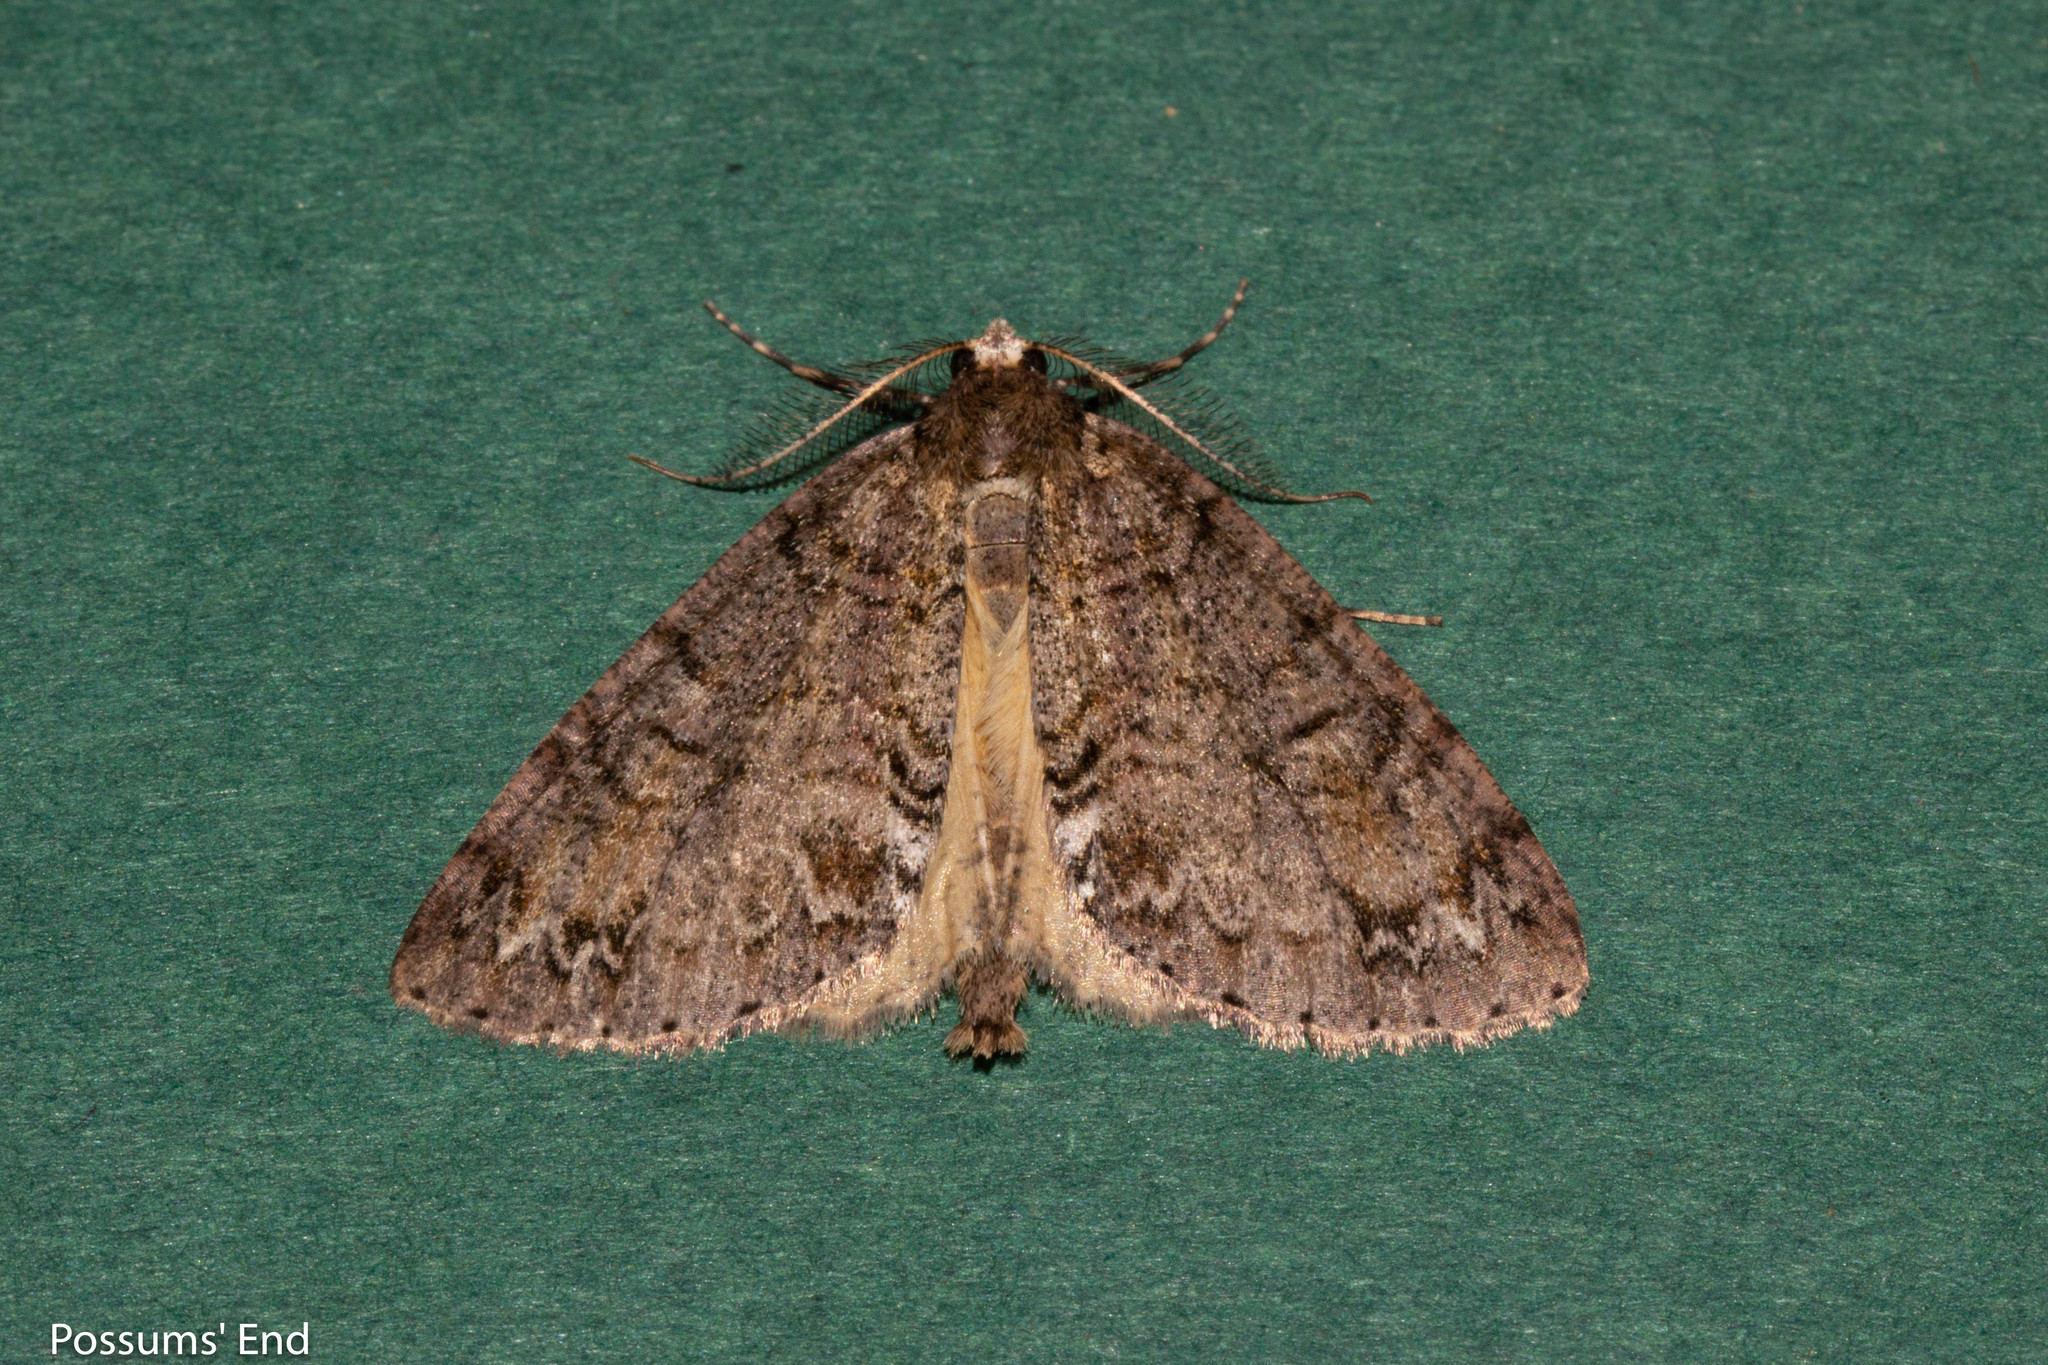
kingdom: Animalia
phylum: Arthropoda
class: Insecta
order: Lepidoptera
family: Geometridae
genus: Pseudocoremia
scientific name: Pseudocoremia suavis
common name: Common forest looper
